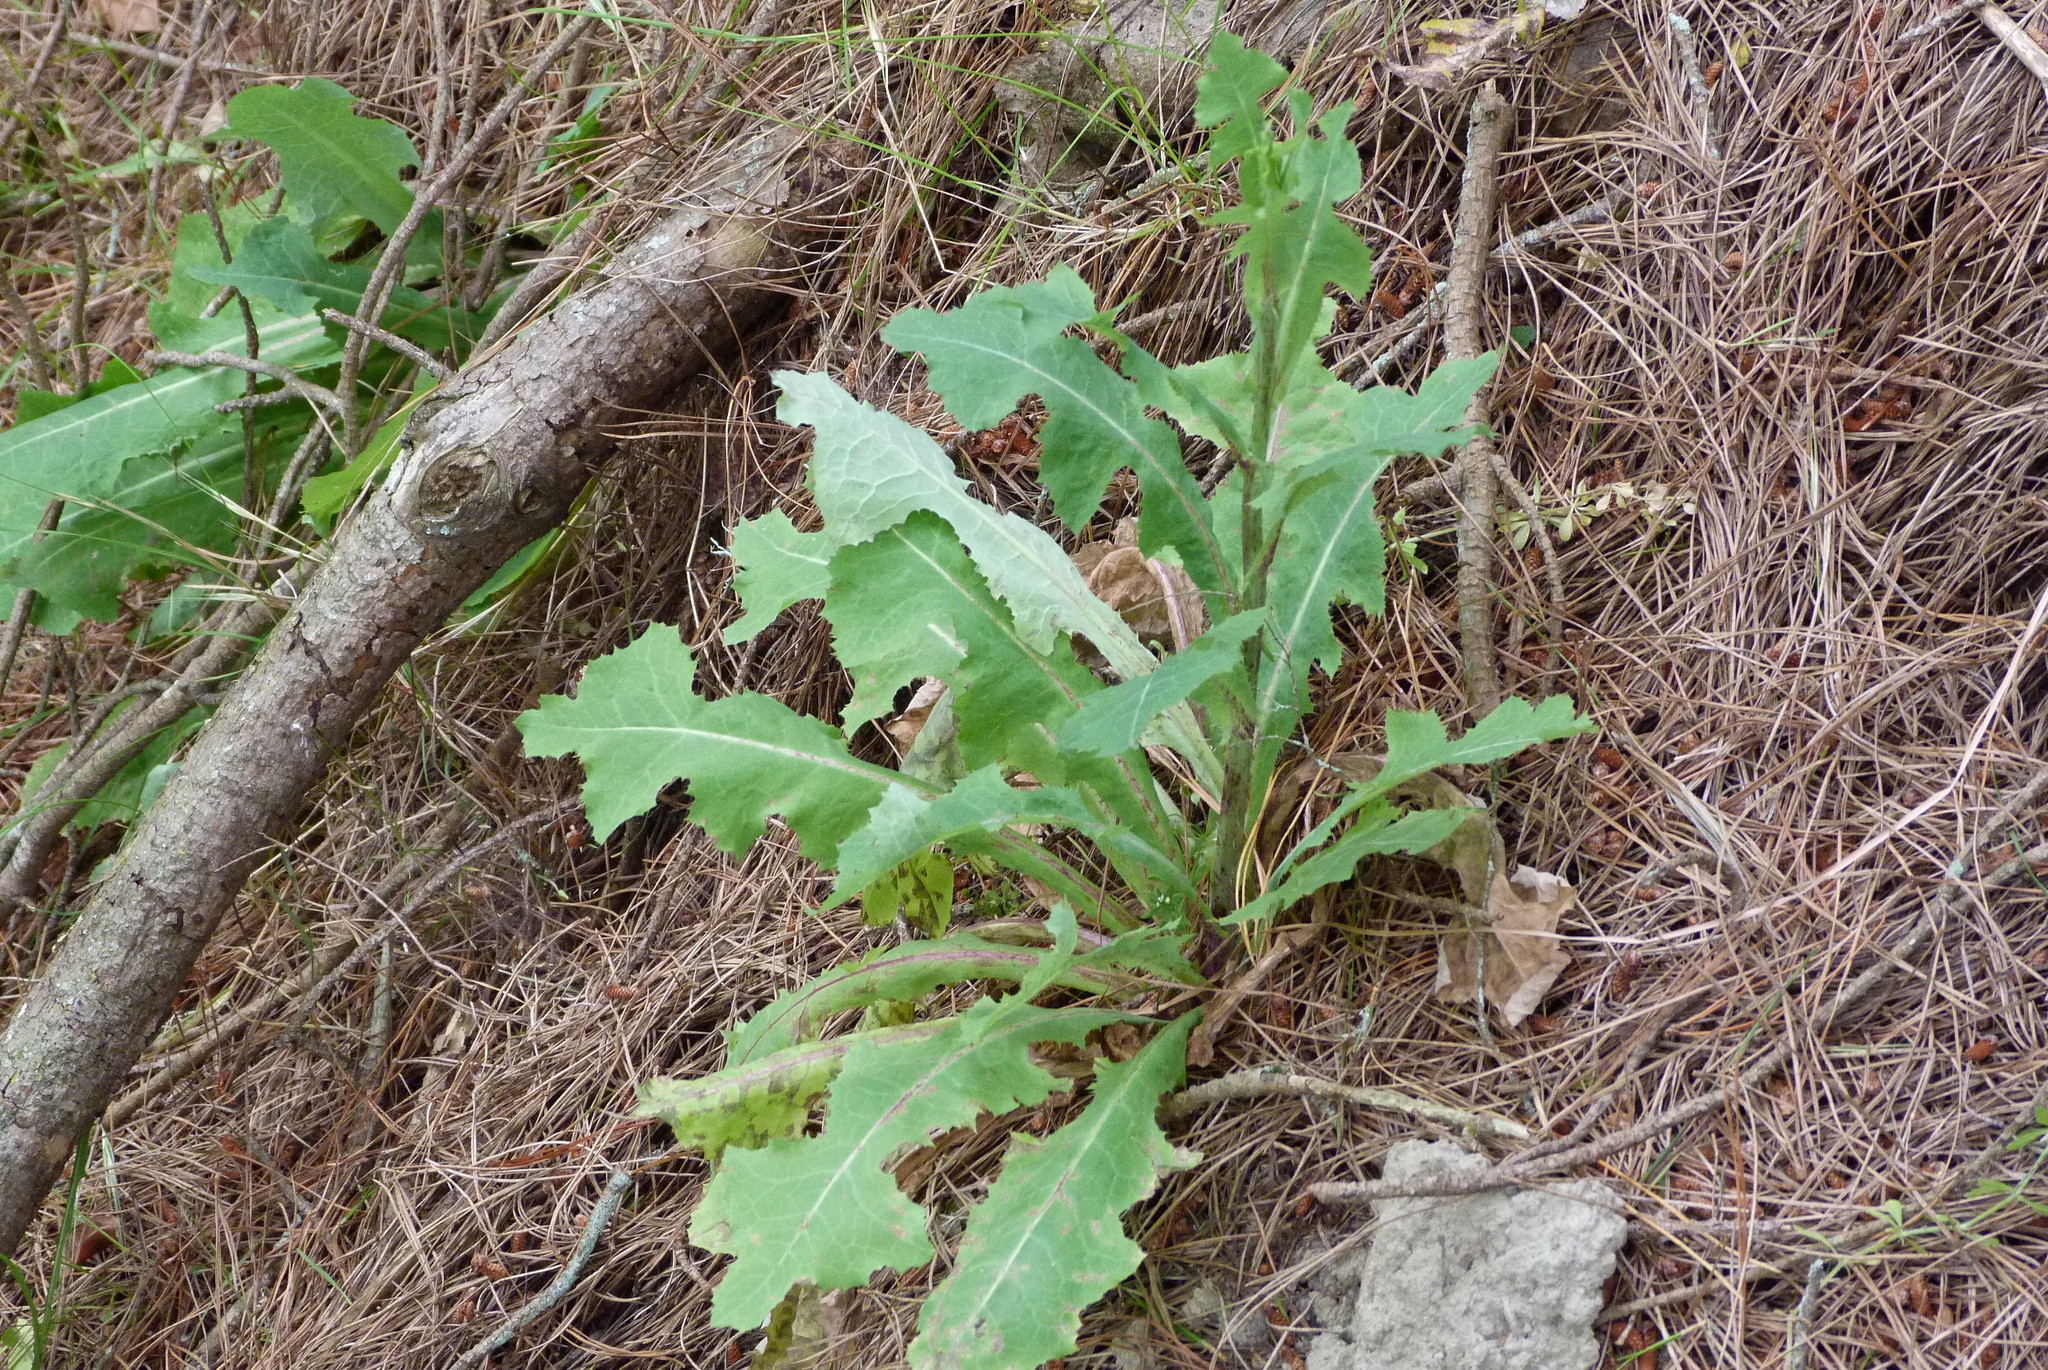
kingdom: Plantae
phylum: Tracheophyta
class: Magnoliopsida
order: Asterales
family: Asteraceae
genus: Sonchus
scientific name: Sonchus kirkii
